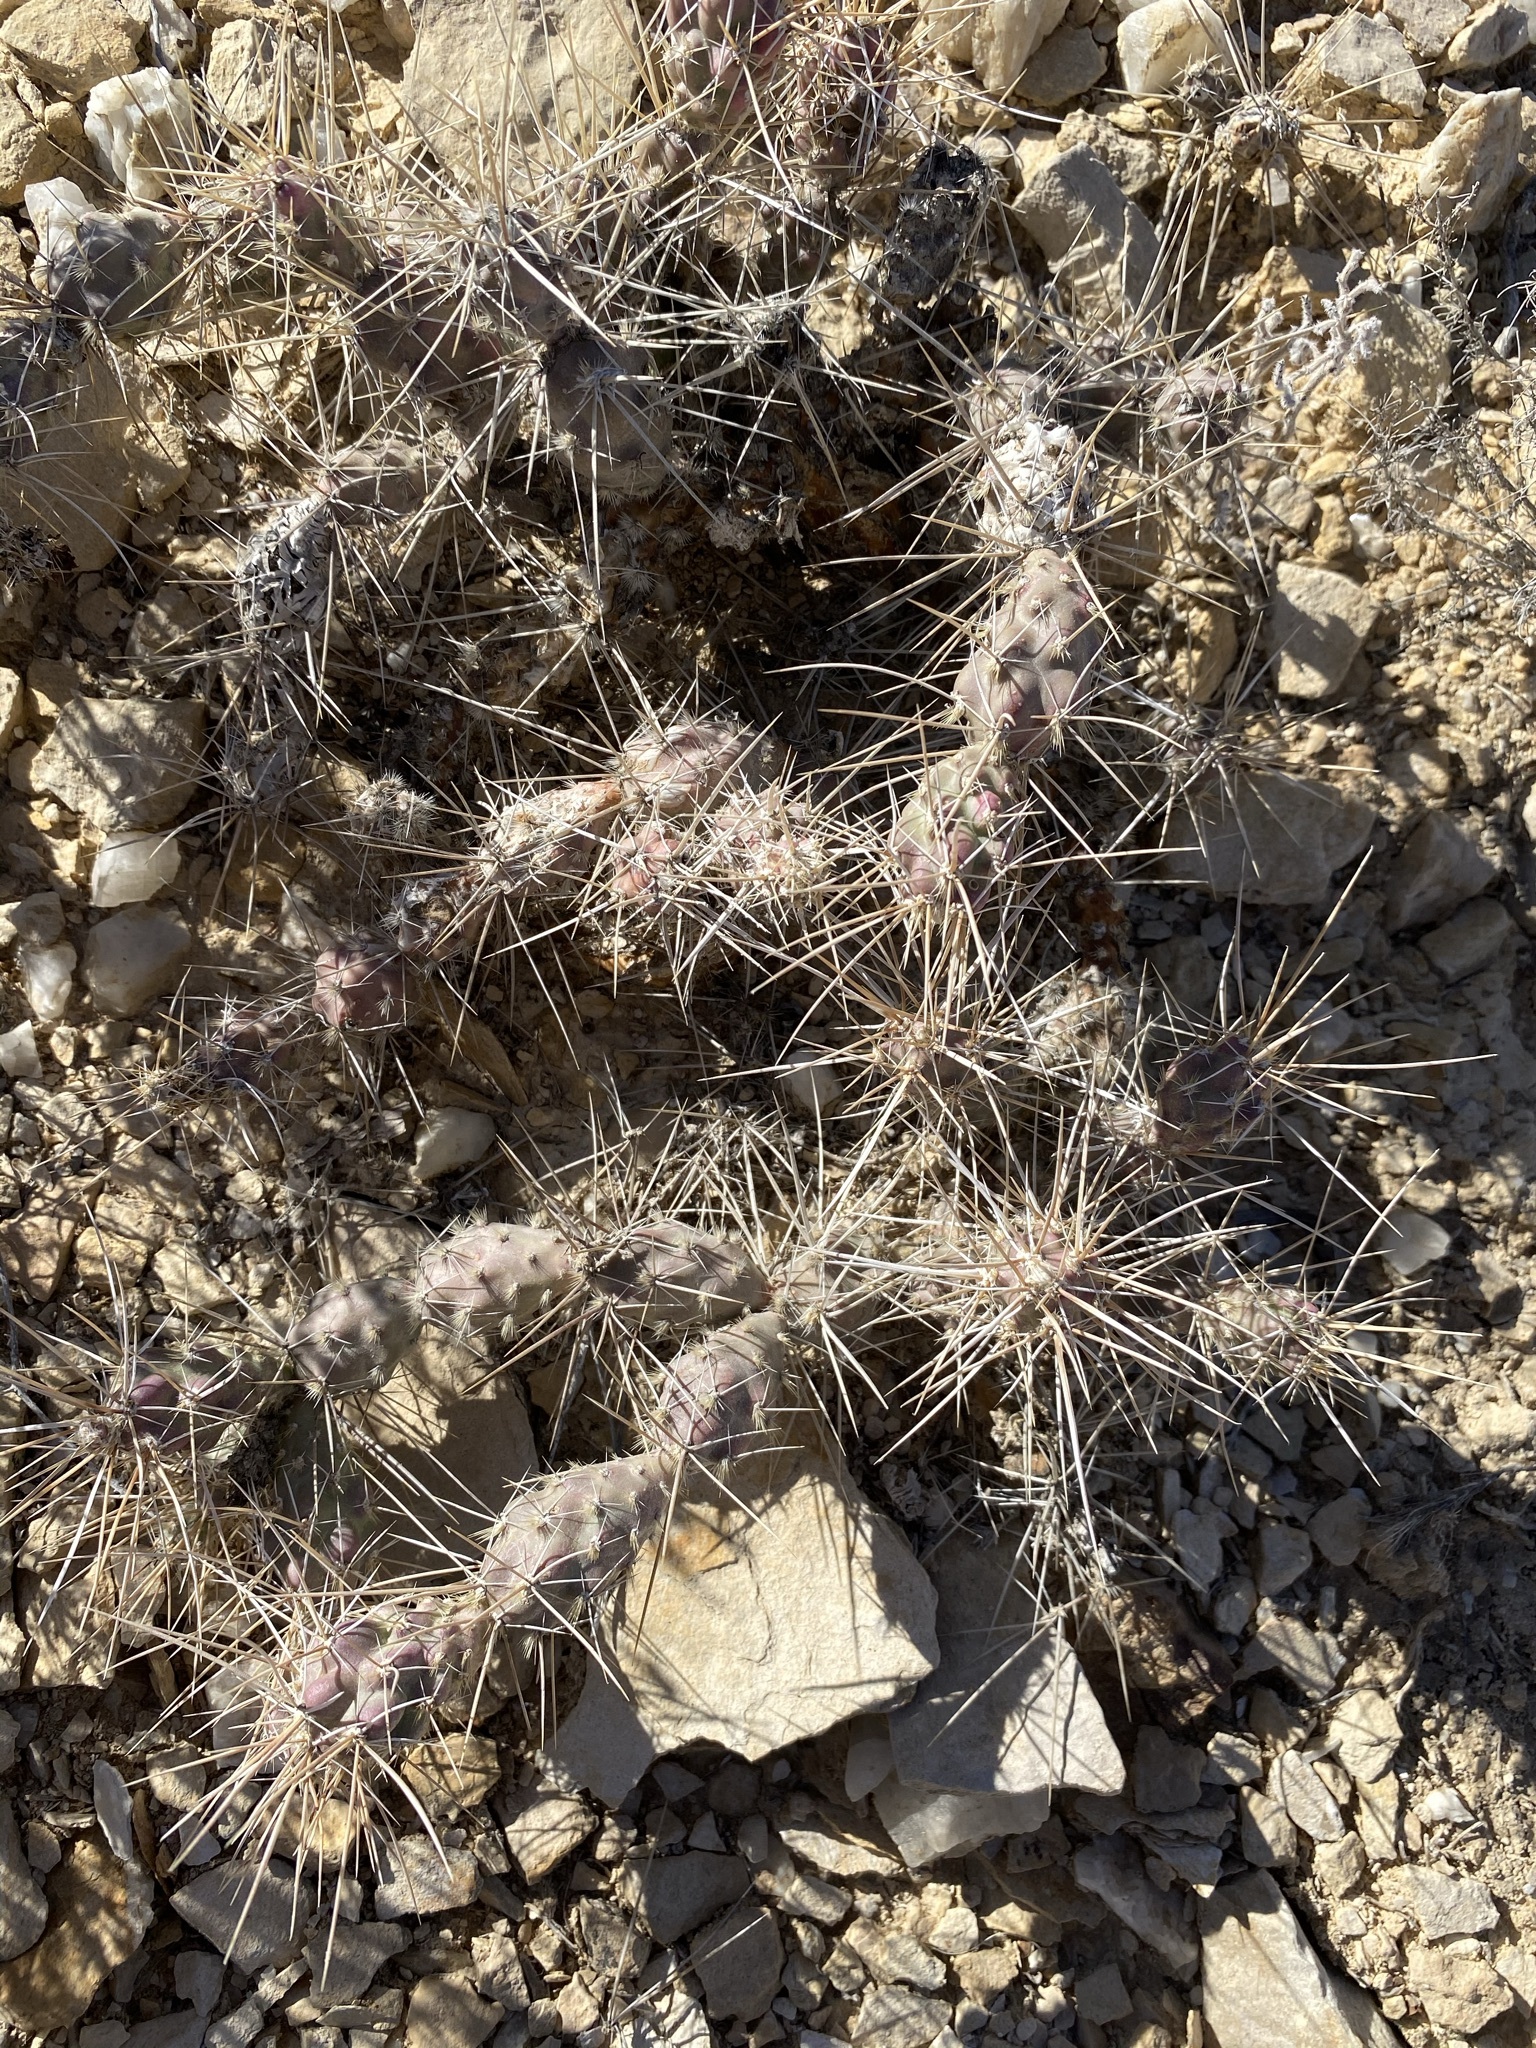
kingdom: Plantae
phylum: Tracheophyta
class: Magnoliopsida
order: Caryophyllales
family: Cactaceae
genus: Grusonia
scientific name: Grusonia grahamii
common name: Graham's club cactus
